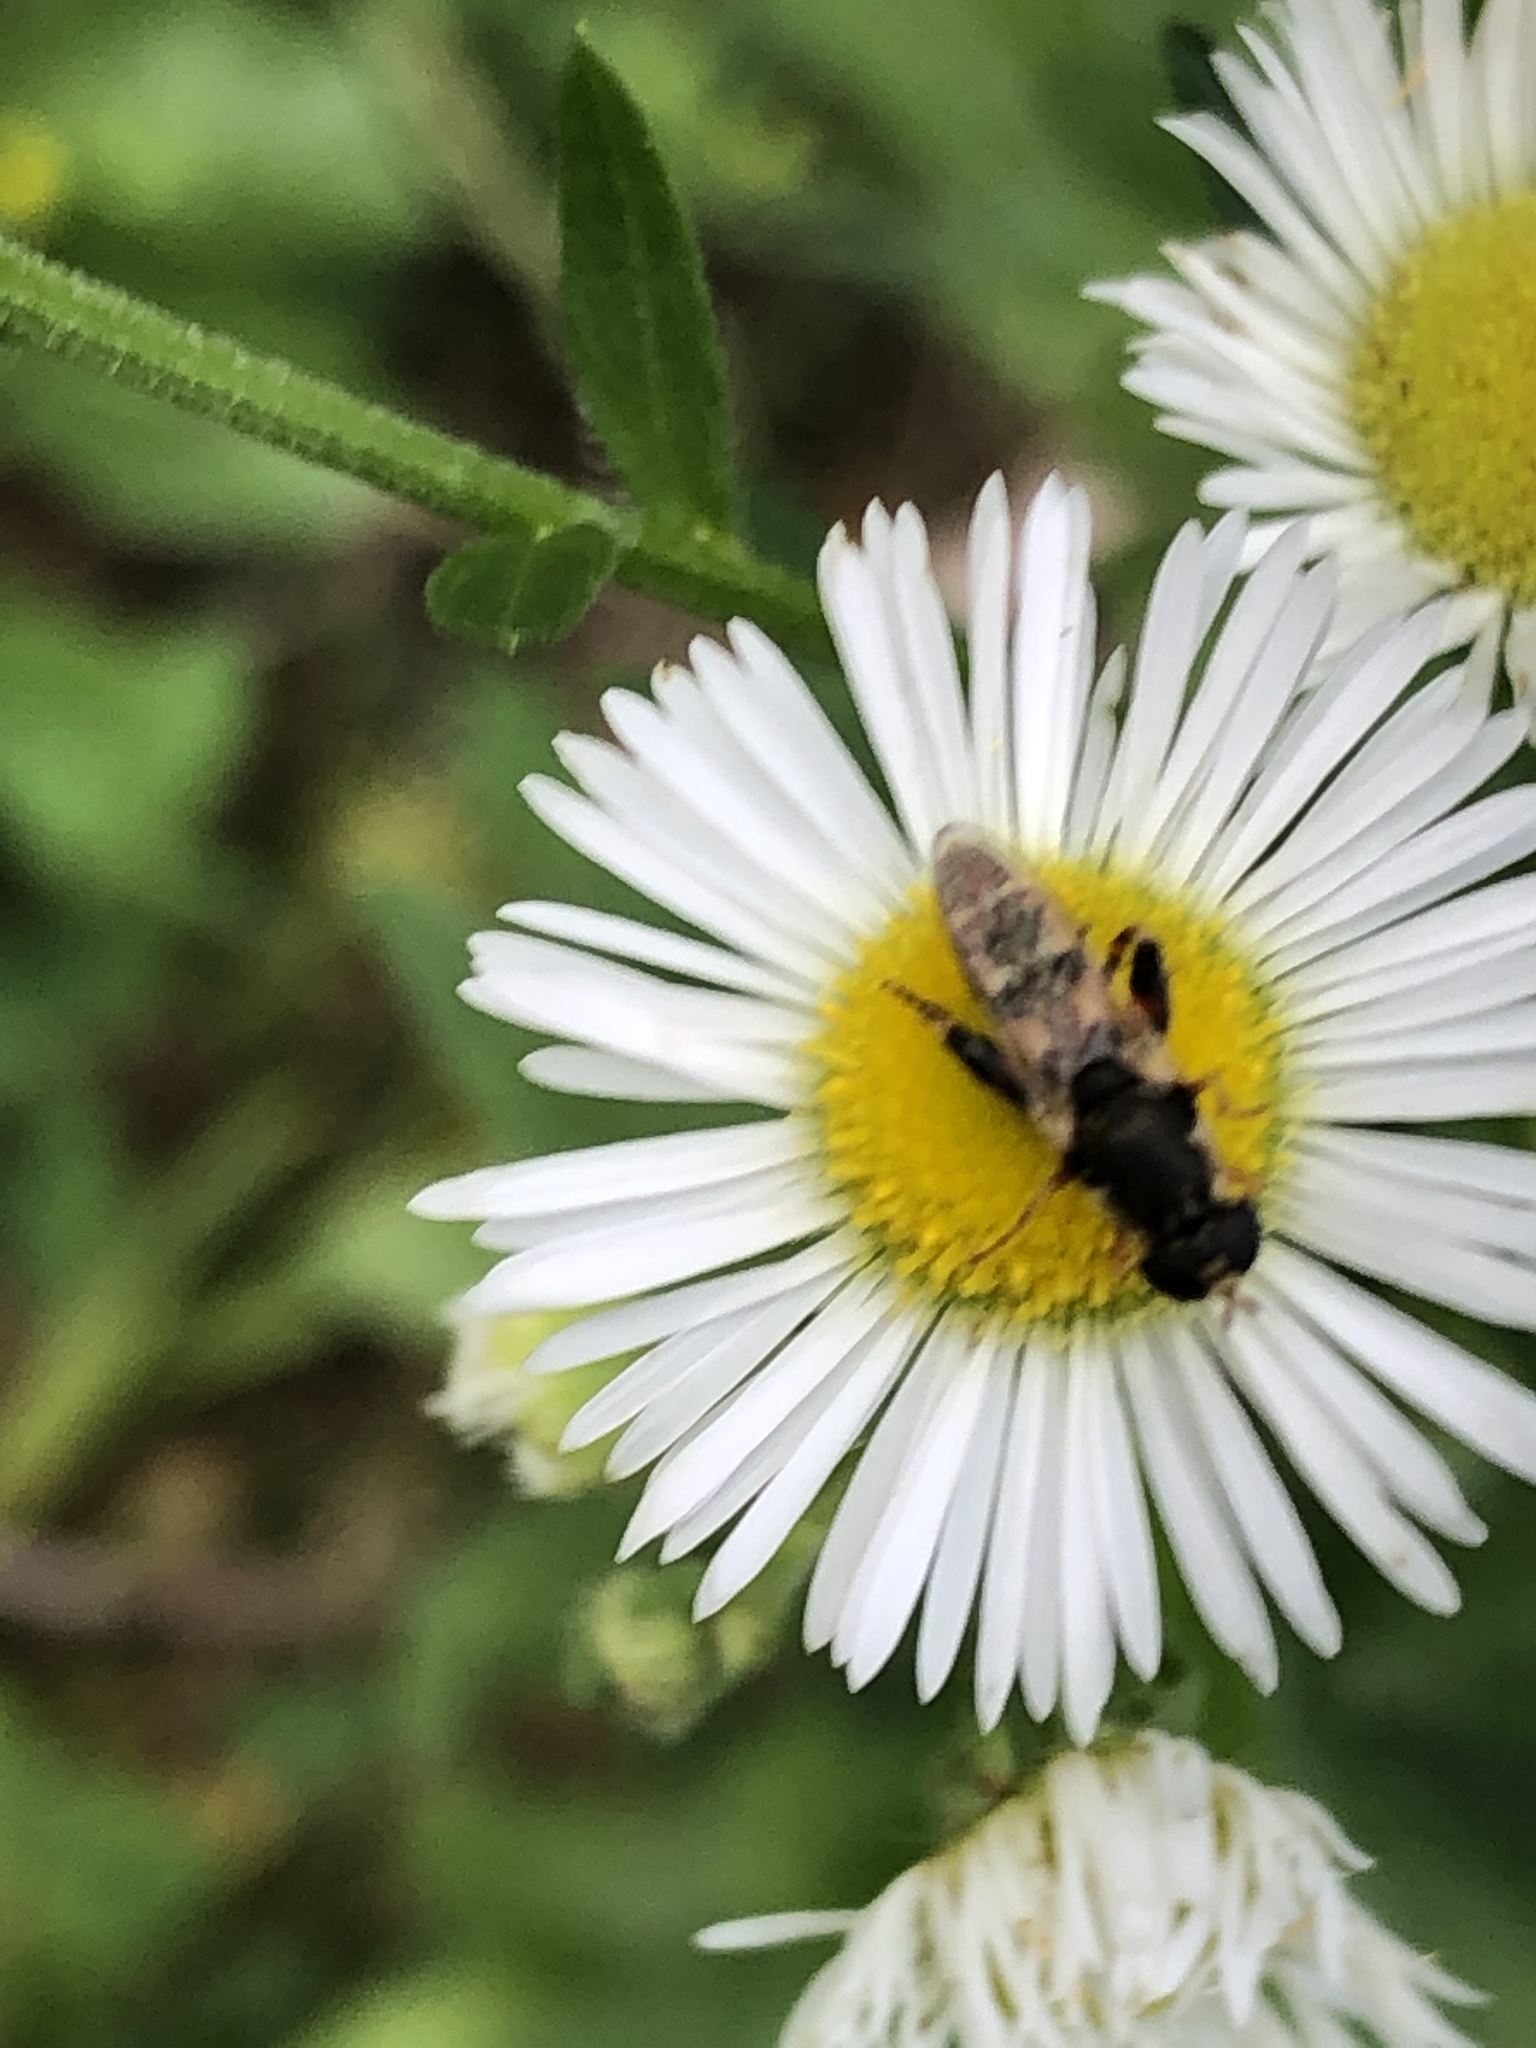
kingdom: Animalia
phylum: Arthropoda
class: Insecta
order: Diptera
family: Syrphidae
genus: Syritta
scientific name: Syritta pipiens
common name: Hover fly
